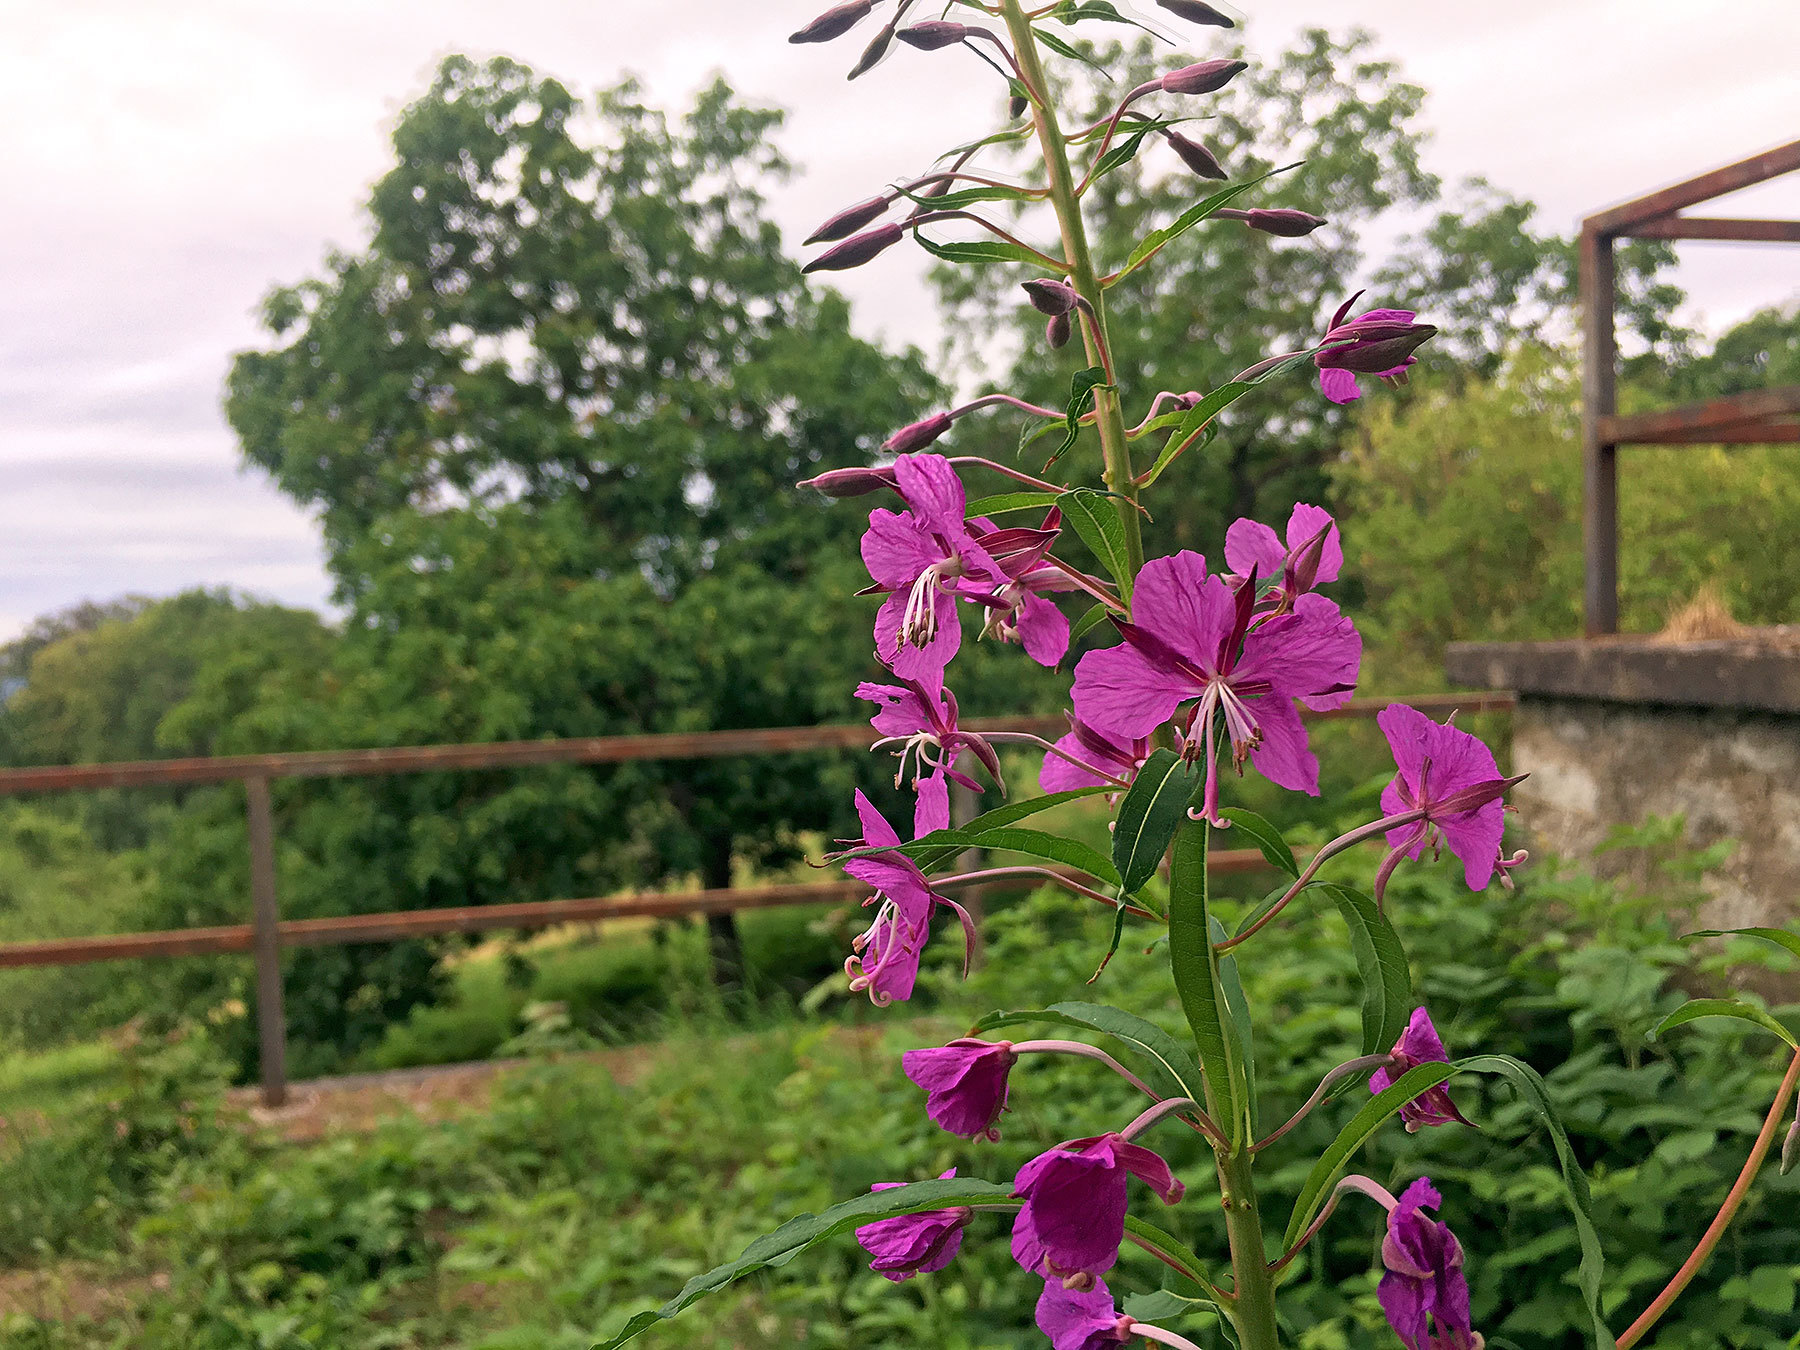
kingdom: Plantae
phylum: Tracheophyta
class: Magnoliopsida
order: Myrtales
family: Onagraceae
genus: Chamaenerion
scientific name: Chamaenerion angustifolium
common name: Fireweed
